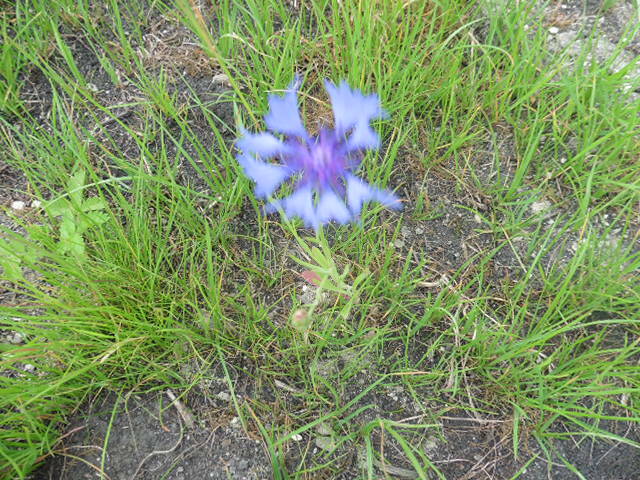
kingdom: Plantae
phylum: Tracheophyta
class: Magnoliopsida
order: Asterales
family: Asteraceae
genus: Centaurea
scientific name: Centaurea cyanus
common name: Cornflower
